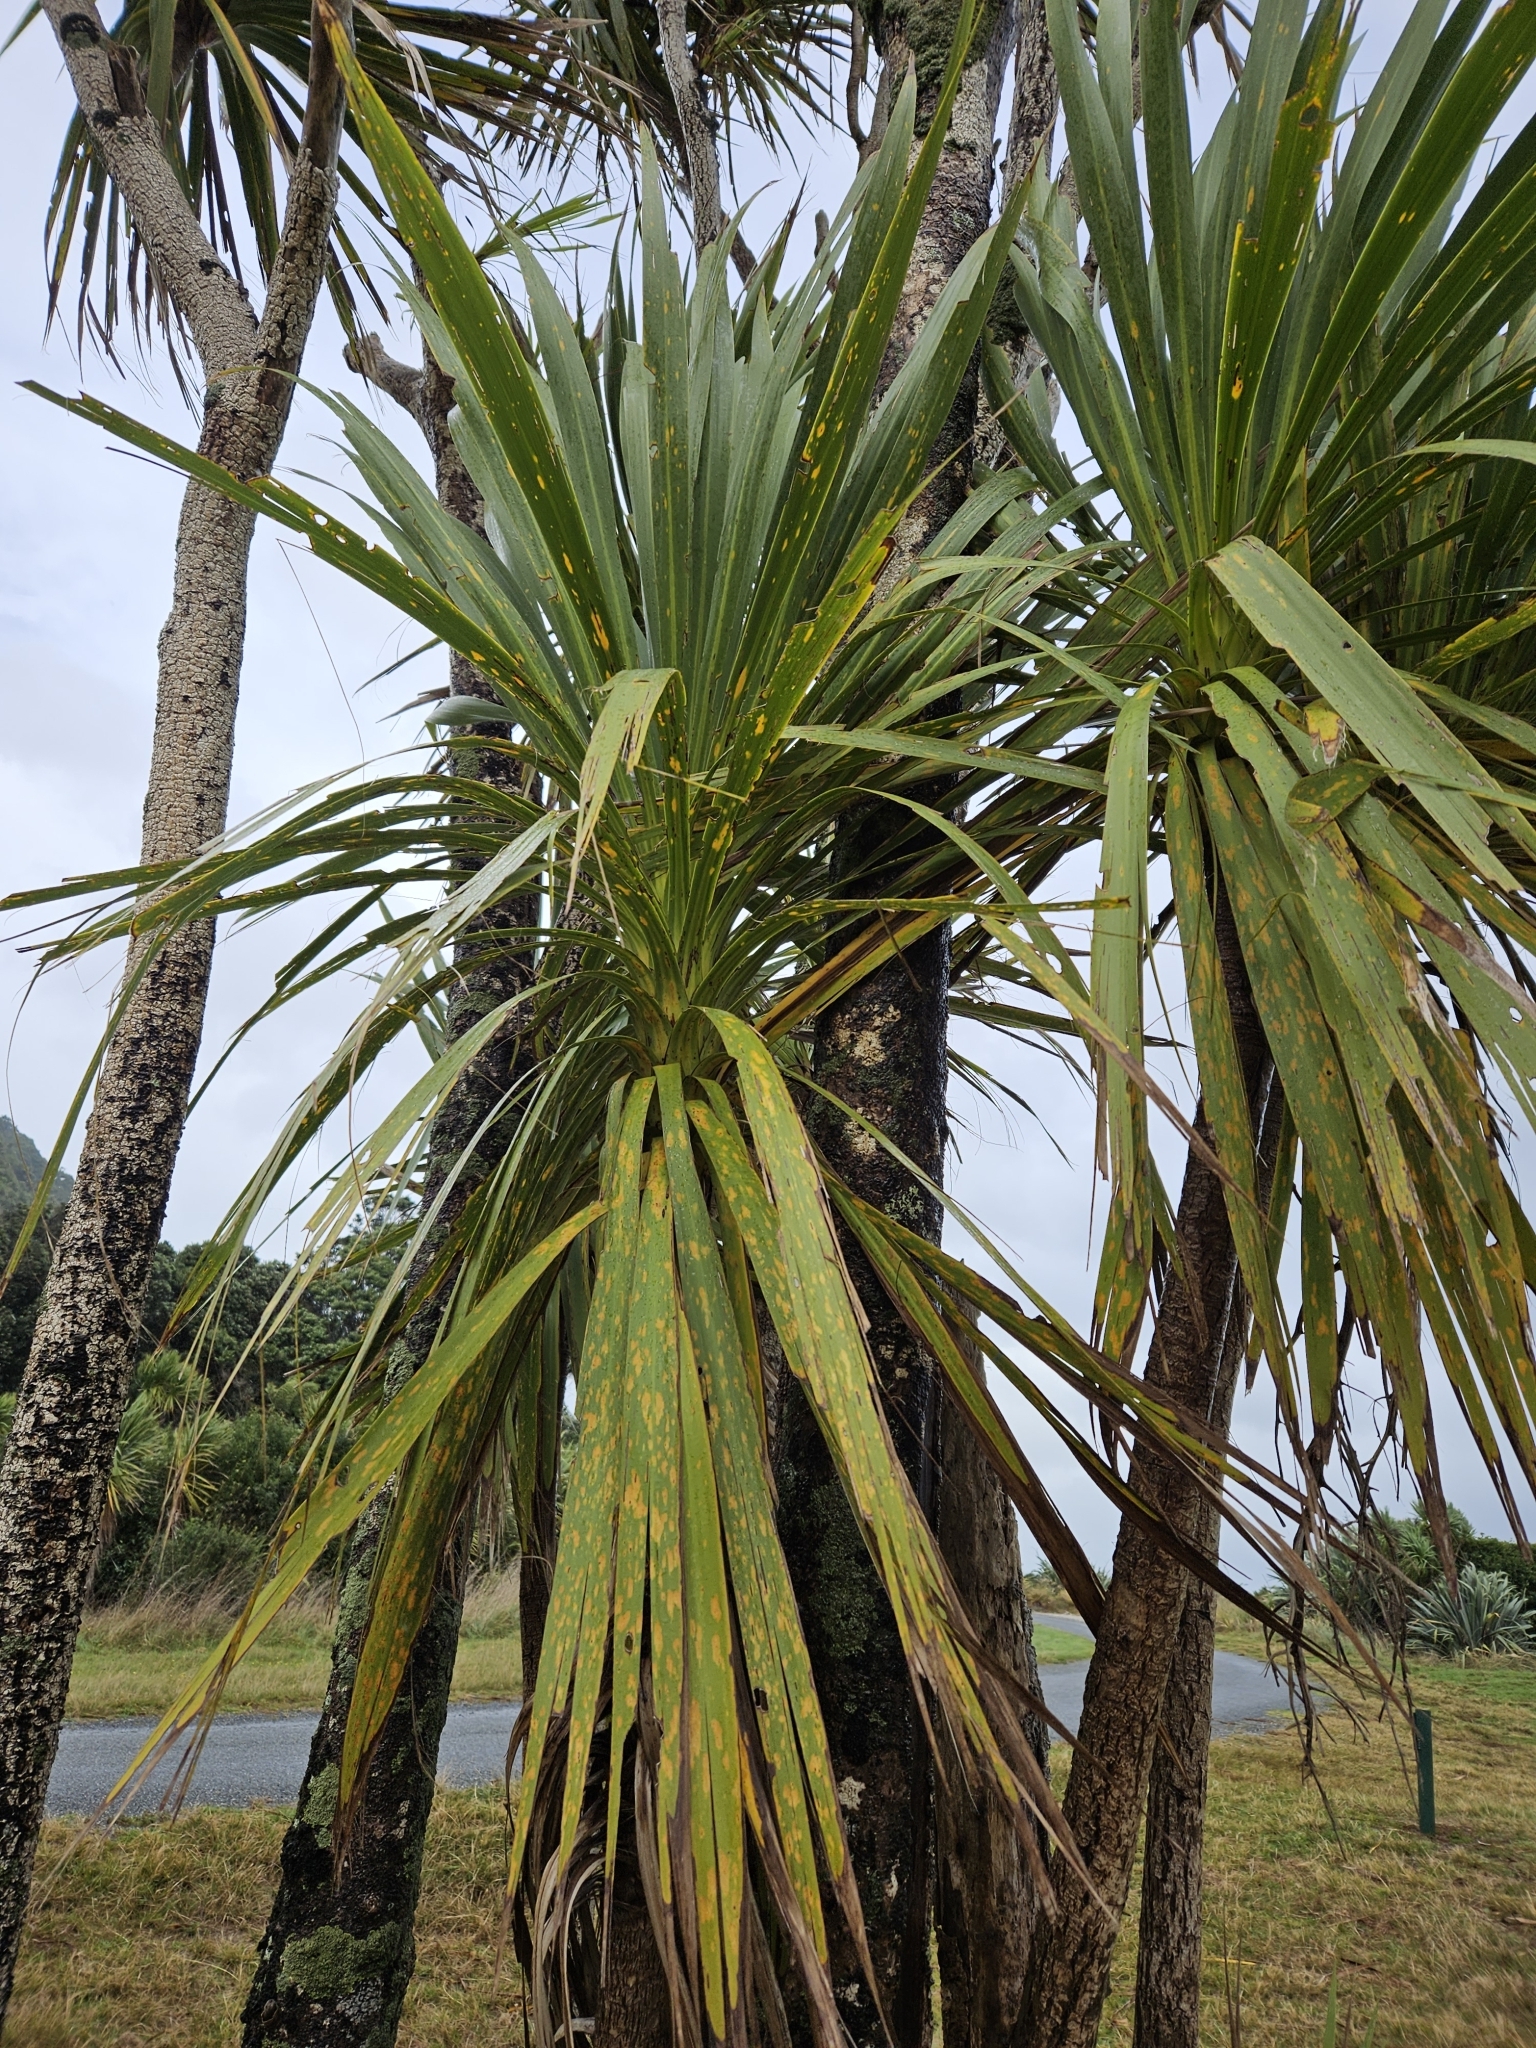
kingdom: Plantae
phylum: Tracheophyta
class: Liliopsida
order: Asparagales
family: Asparagaceae
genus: Cordyline
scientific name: Cordyline australis
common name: Cabbage-palm
